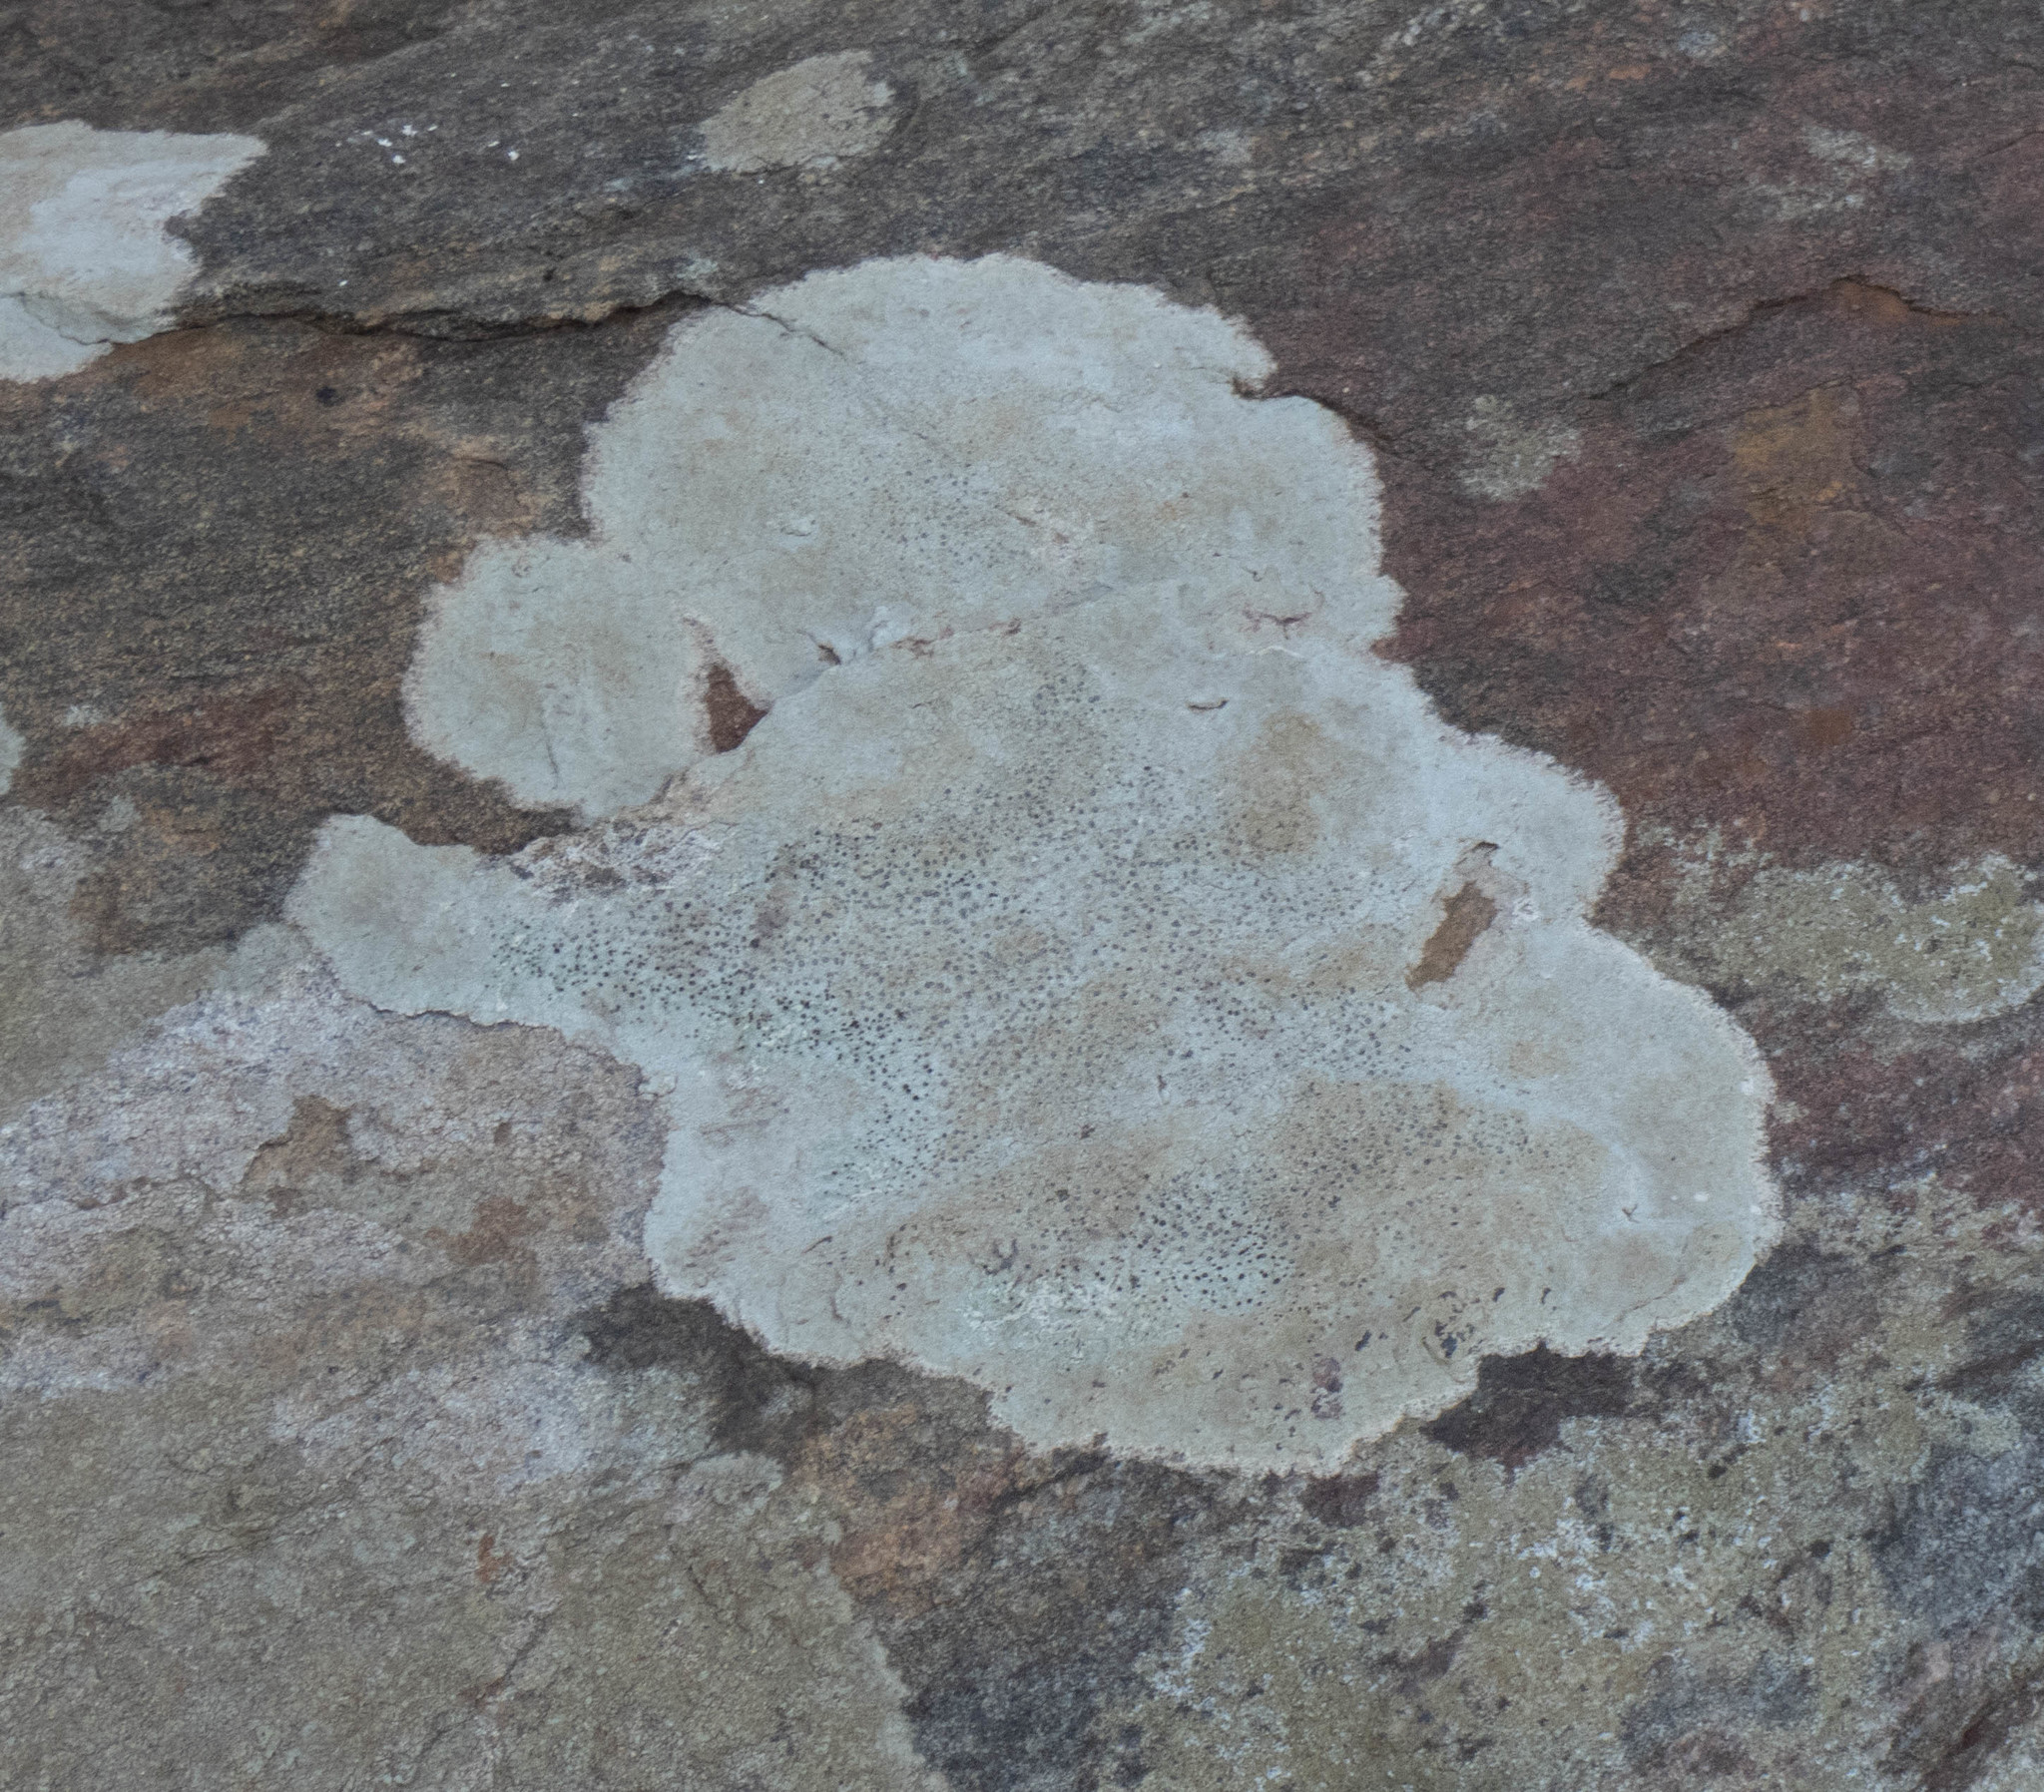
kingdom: Fungi
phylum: Ascomycota
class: Lecanoromycetes
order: Lecideales
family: Lecideaceae
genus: Porpidia
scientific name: Porpidia albocaerulescens
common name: Smokey-eyed boulder lichen
